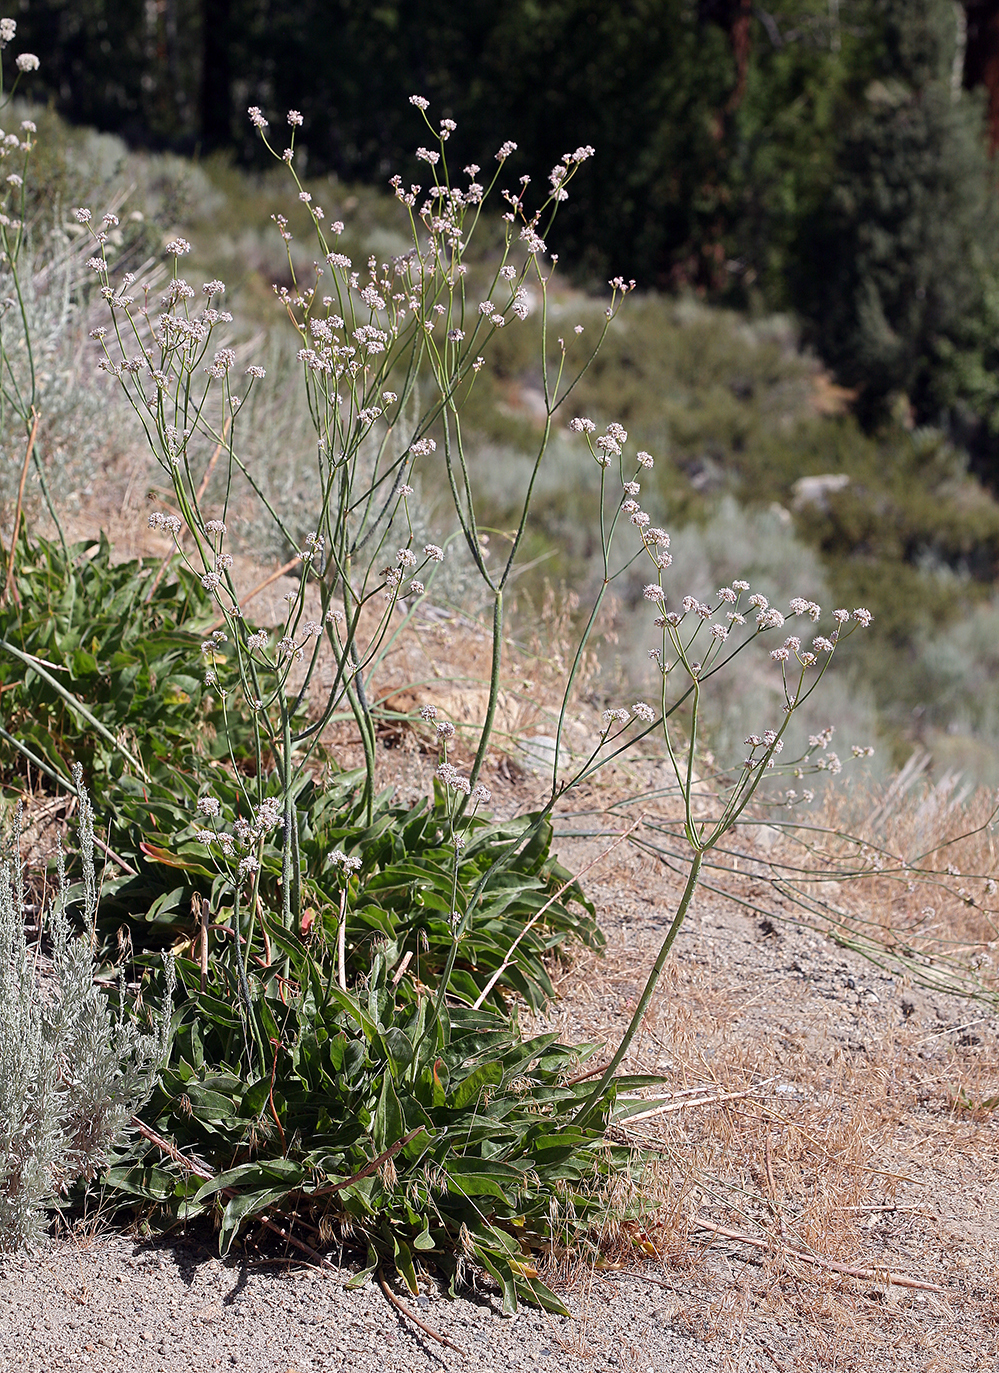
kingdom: Plantae
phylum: Tracheophyta
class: Magnoliopsida
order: Caryophyllales
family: Polygonaceae
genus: Eriogonum
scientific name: Eriogonum elatum
